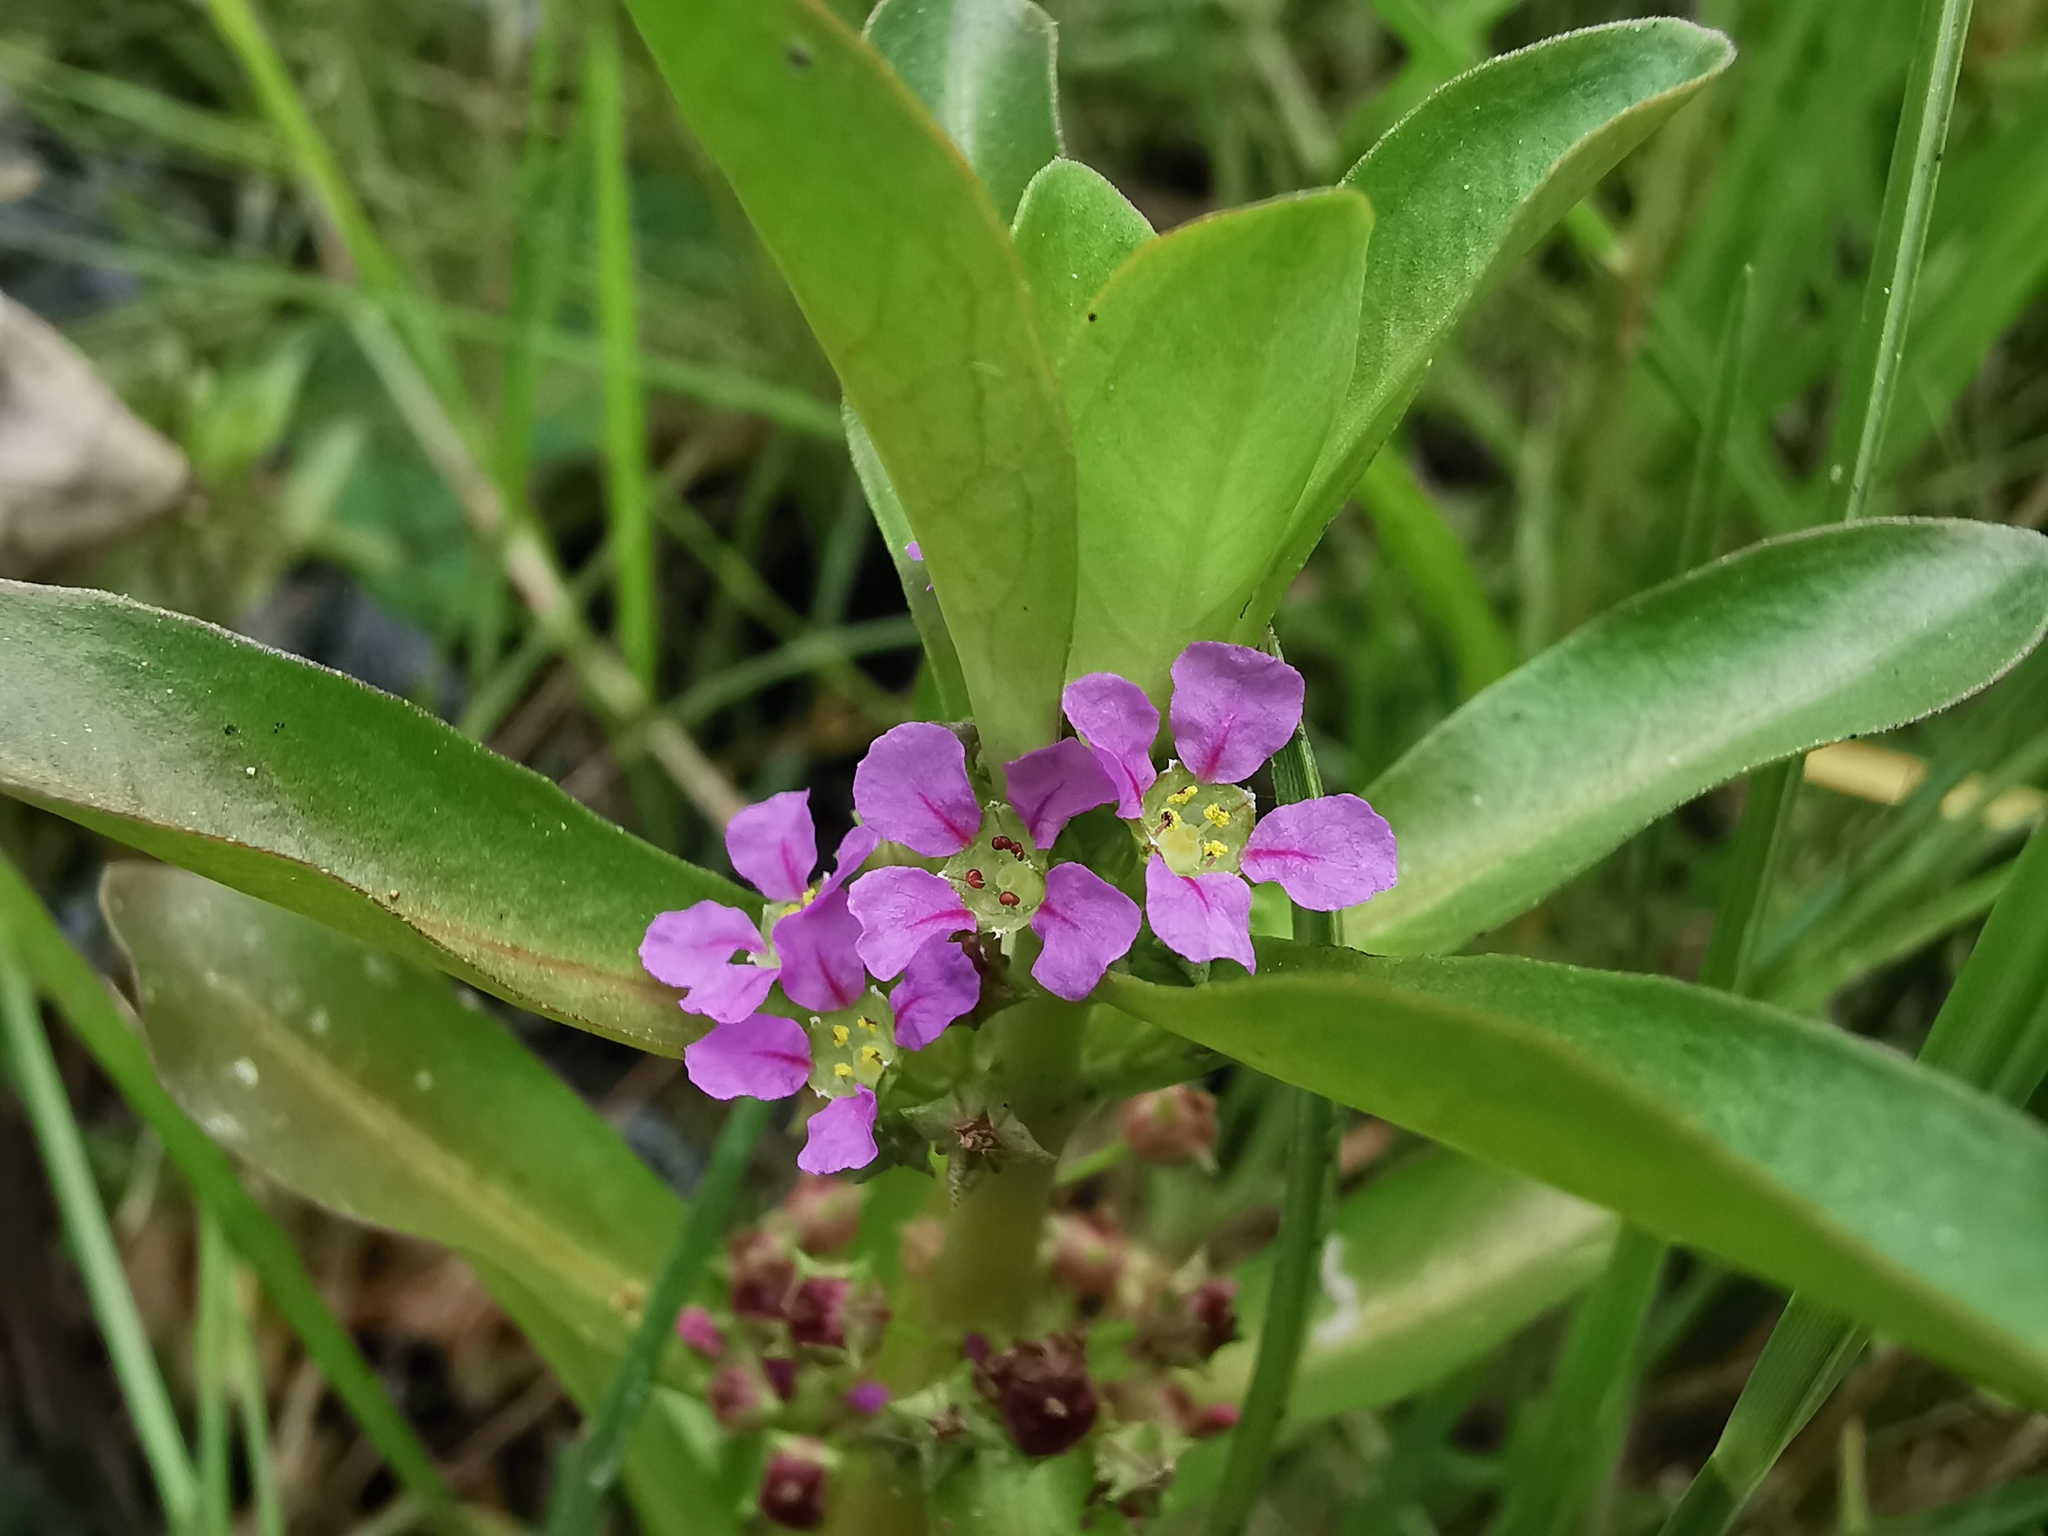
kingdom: Plantae
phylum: Tracheophyta
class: Magnoliopsida
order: Myrtales
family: Lythraceae
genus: Ammannia
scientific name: Ammannia crassicaulis
